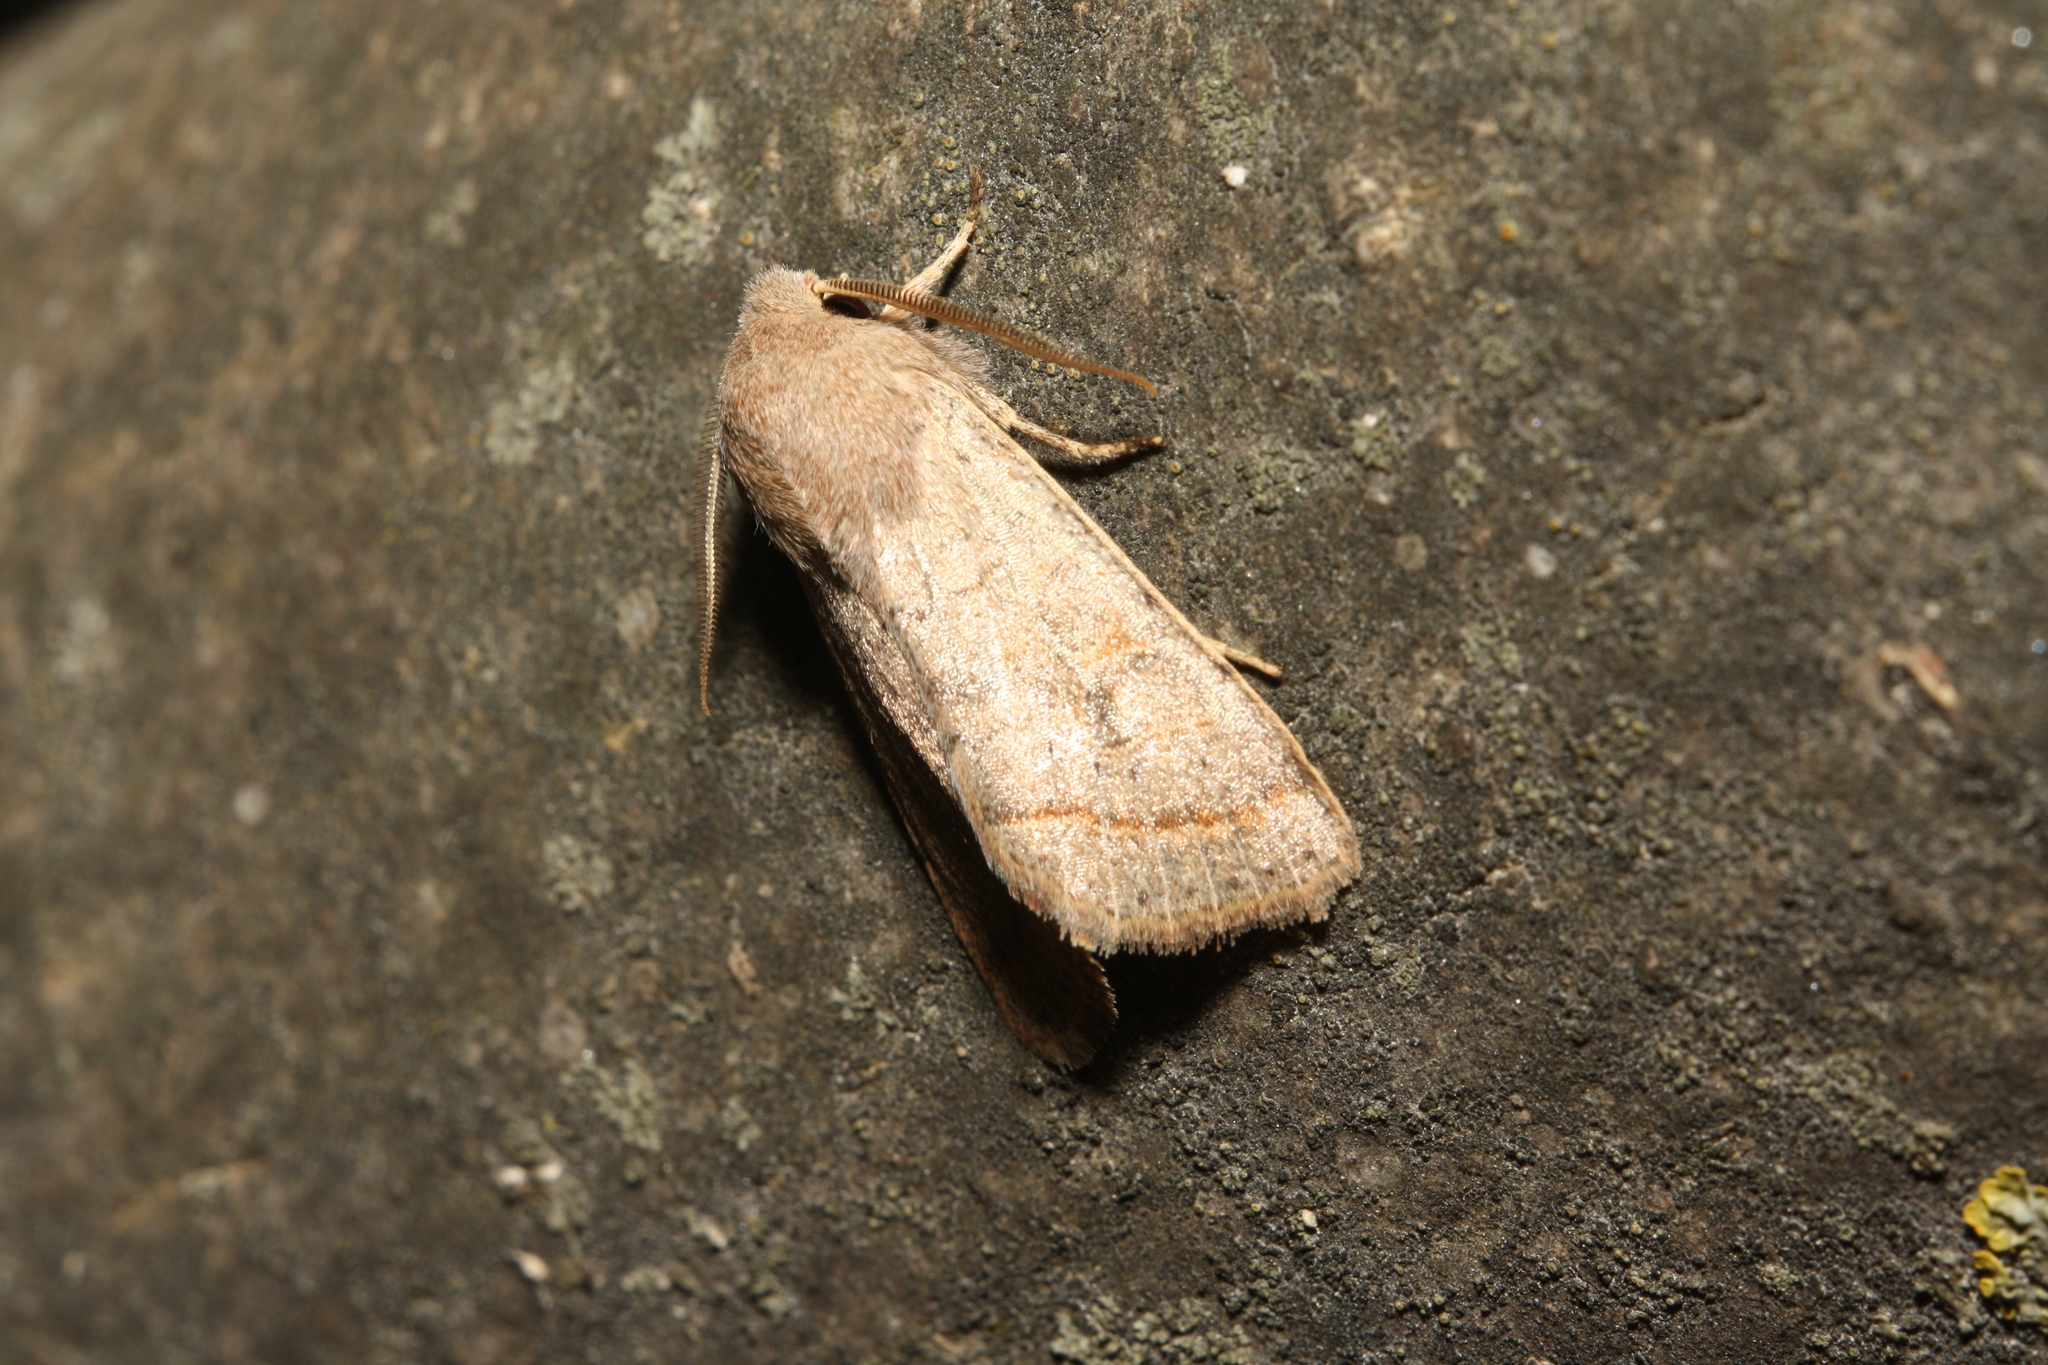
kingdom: Animalia
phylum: Arthropoda
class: Insecta
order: Lepidoptera
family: Noctuidae
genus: Orthosia
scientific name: Orthosia cerasi
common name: Common quaker
